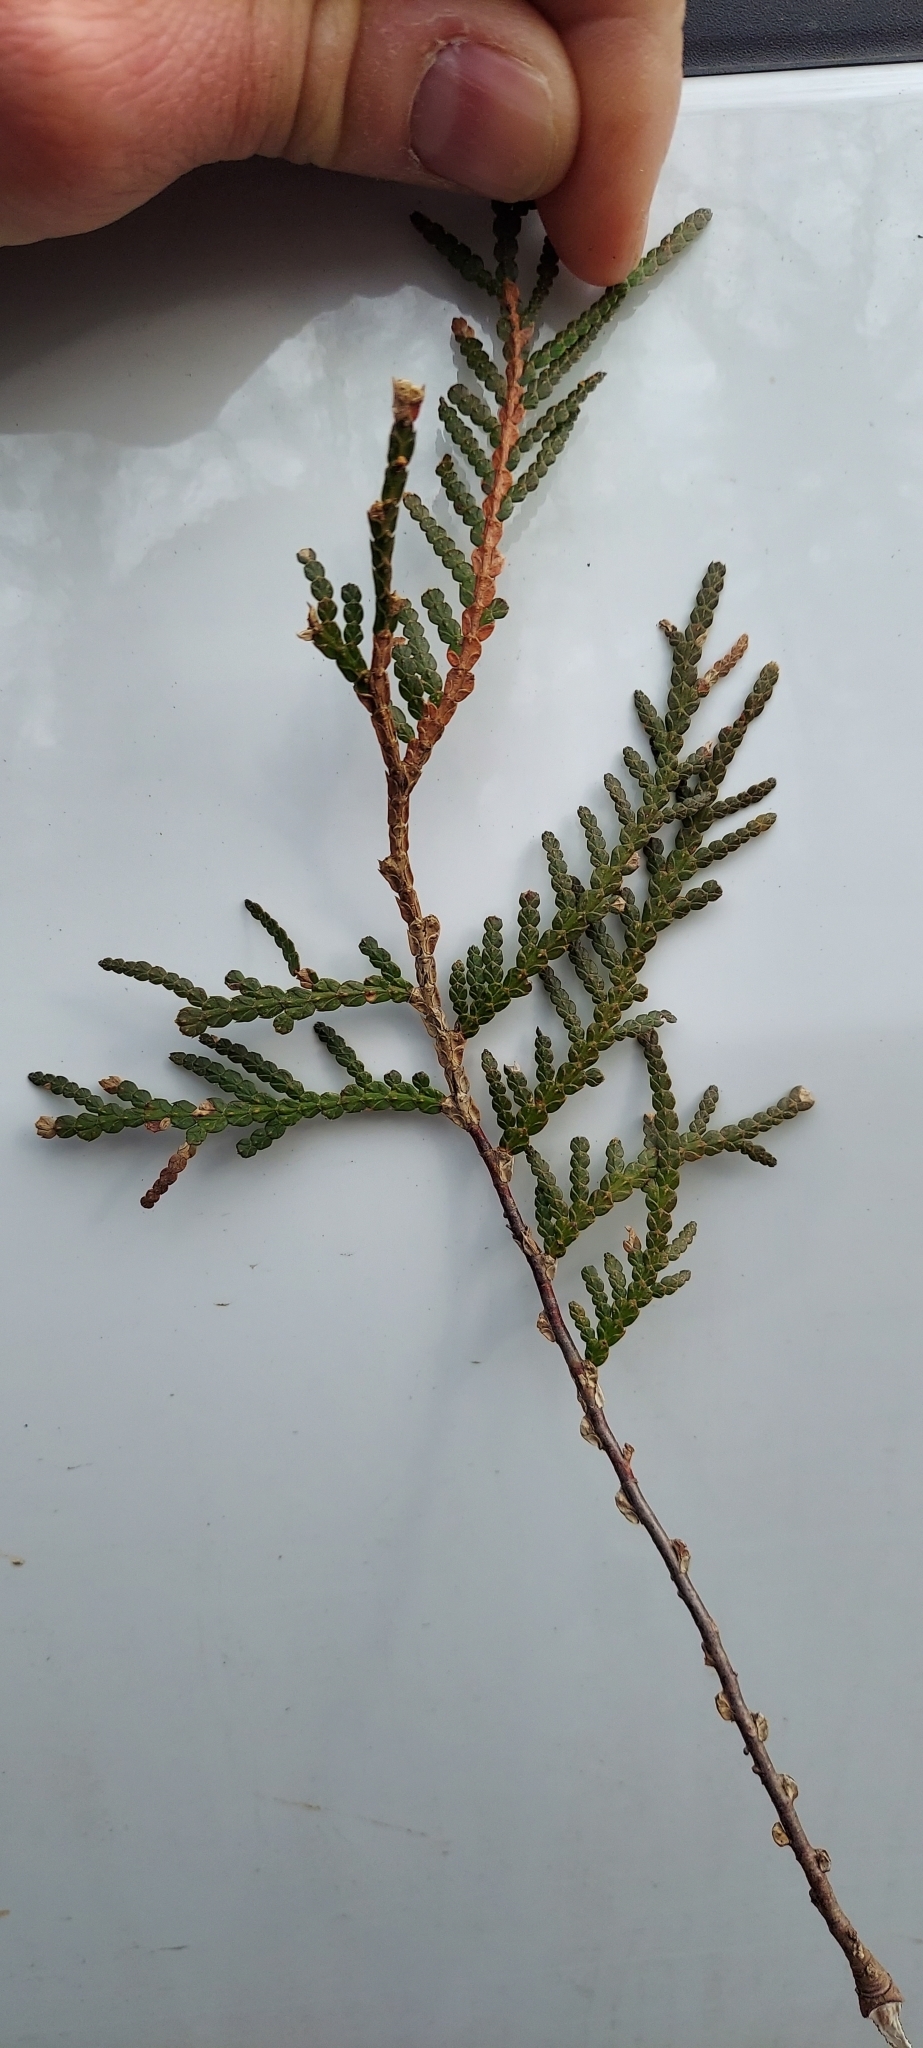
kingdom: Plantae
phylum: Tracheophyta
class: Pinopsida
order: Pinales
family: Cupressaceae
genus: Thuja
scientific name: Thuja occidentalis
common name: Northern white-cedar
